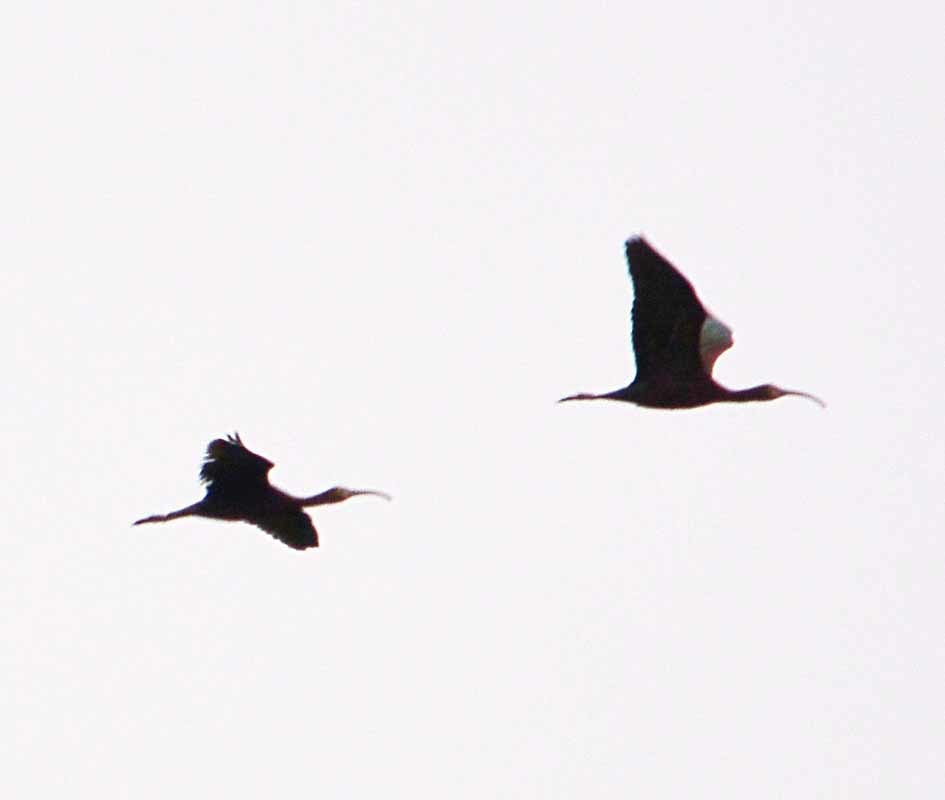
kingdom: Animalia
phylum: Chordata
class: Aves
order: Pelecaniformes
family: Threskiornithidae
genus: Plegadis
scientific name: Plegadis chihi
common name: White-faced ibis
